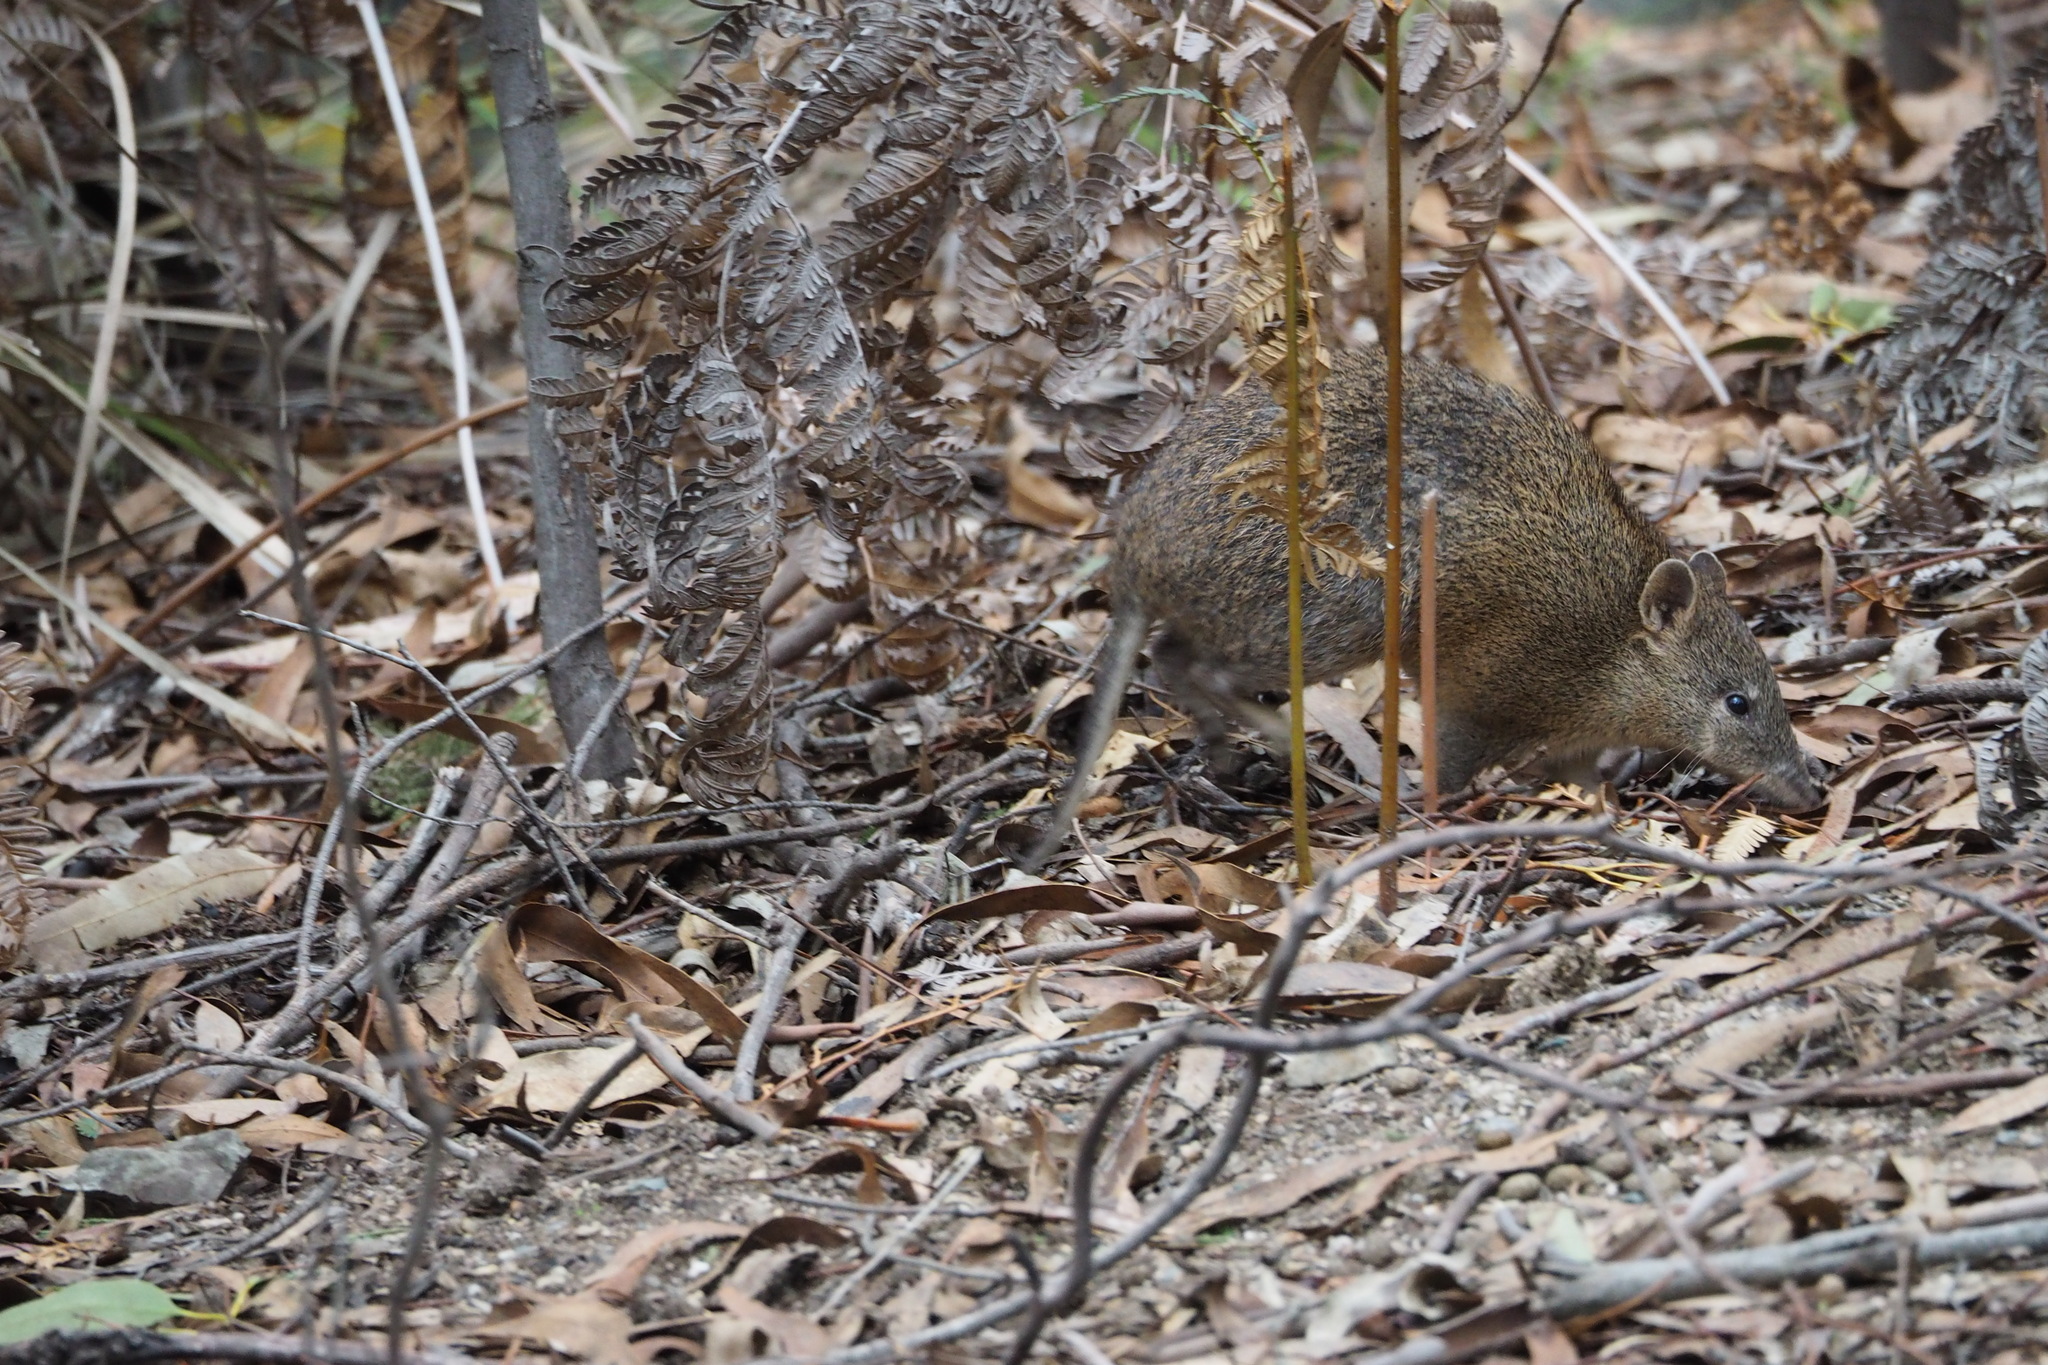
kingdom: Animalia
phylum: Chordata
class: Mammalia
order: Peramelemorphia
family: Peramelidae
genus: Isoodon
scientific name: Isoodon obesulus
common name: Southern brown bandicoot
